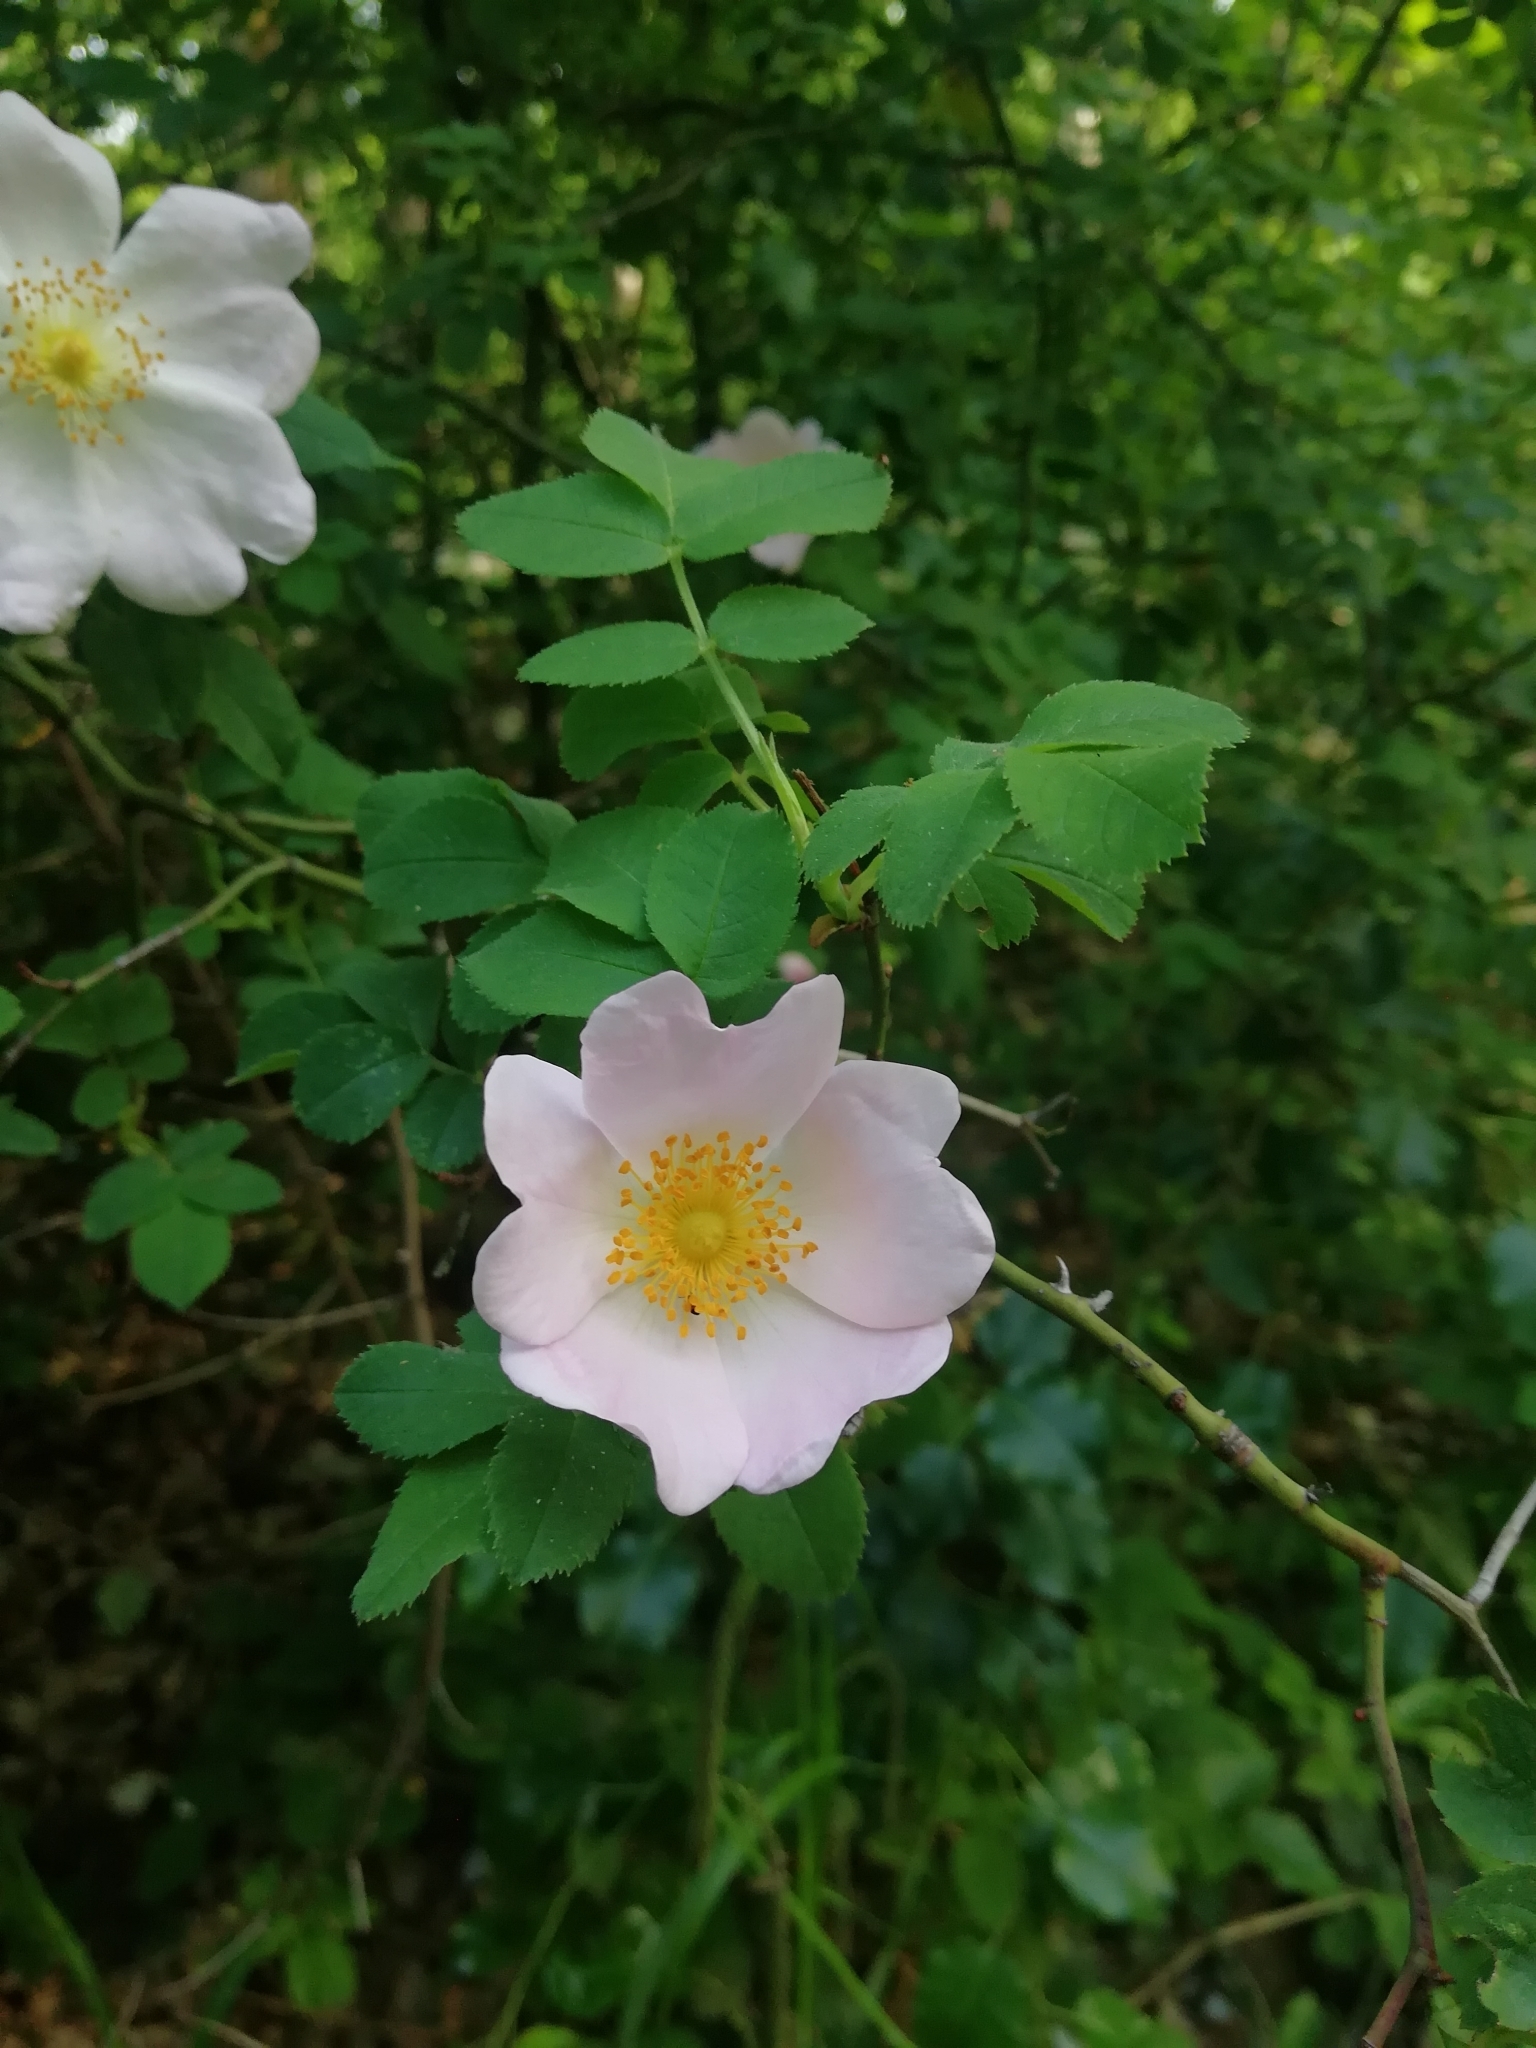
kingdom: Plantae
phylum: Tracheophyta
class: Magnoliopsida
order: Rosales
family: Rosaceae
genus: Rosa
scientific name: Rosa
